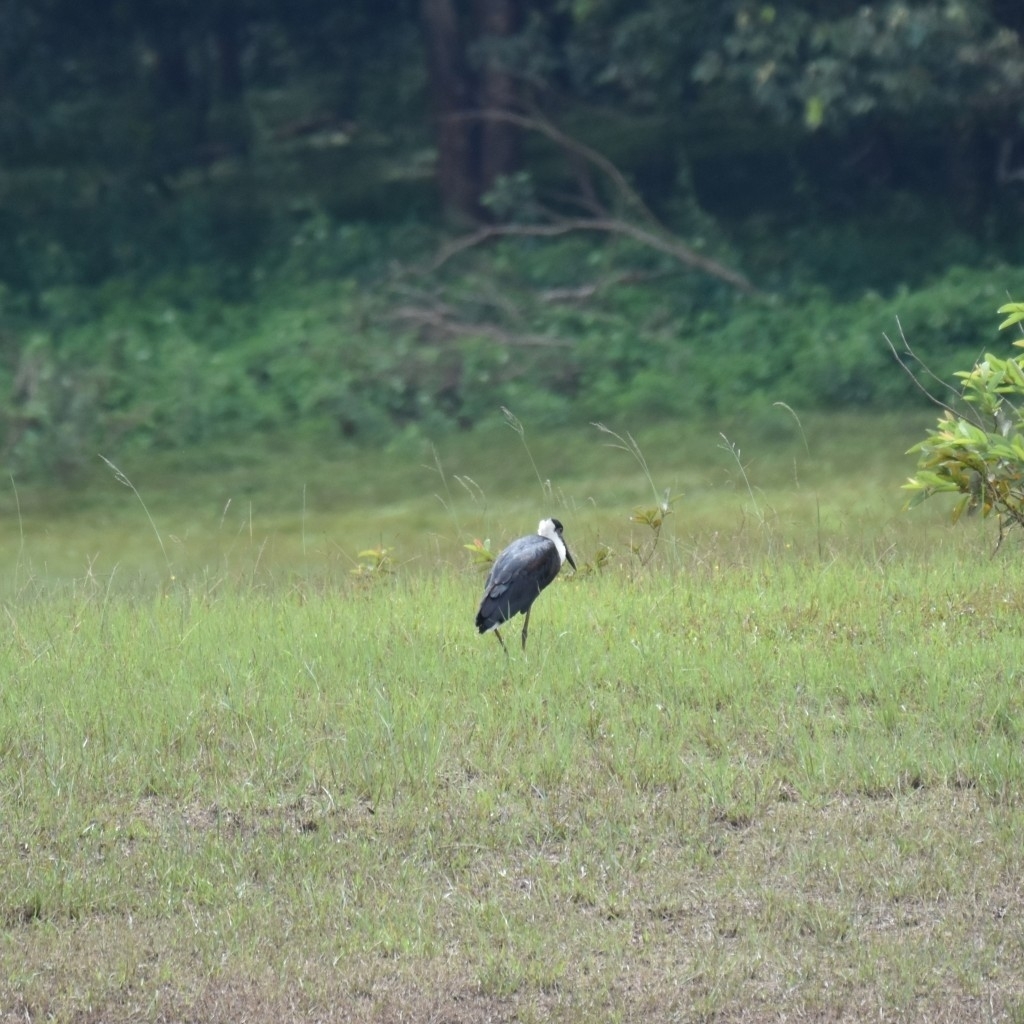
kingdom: Animalia
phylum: Chordata
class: Aves
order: Ciconiiformes
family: Ciconiidae
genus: Ciconia
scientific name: Ciconia episcopus
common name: Woolly-necked stork
